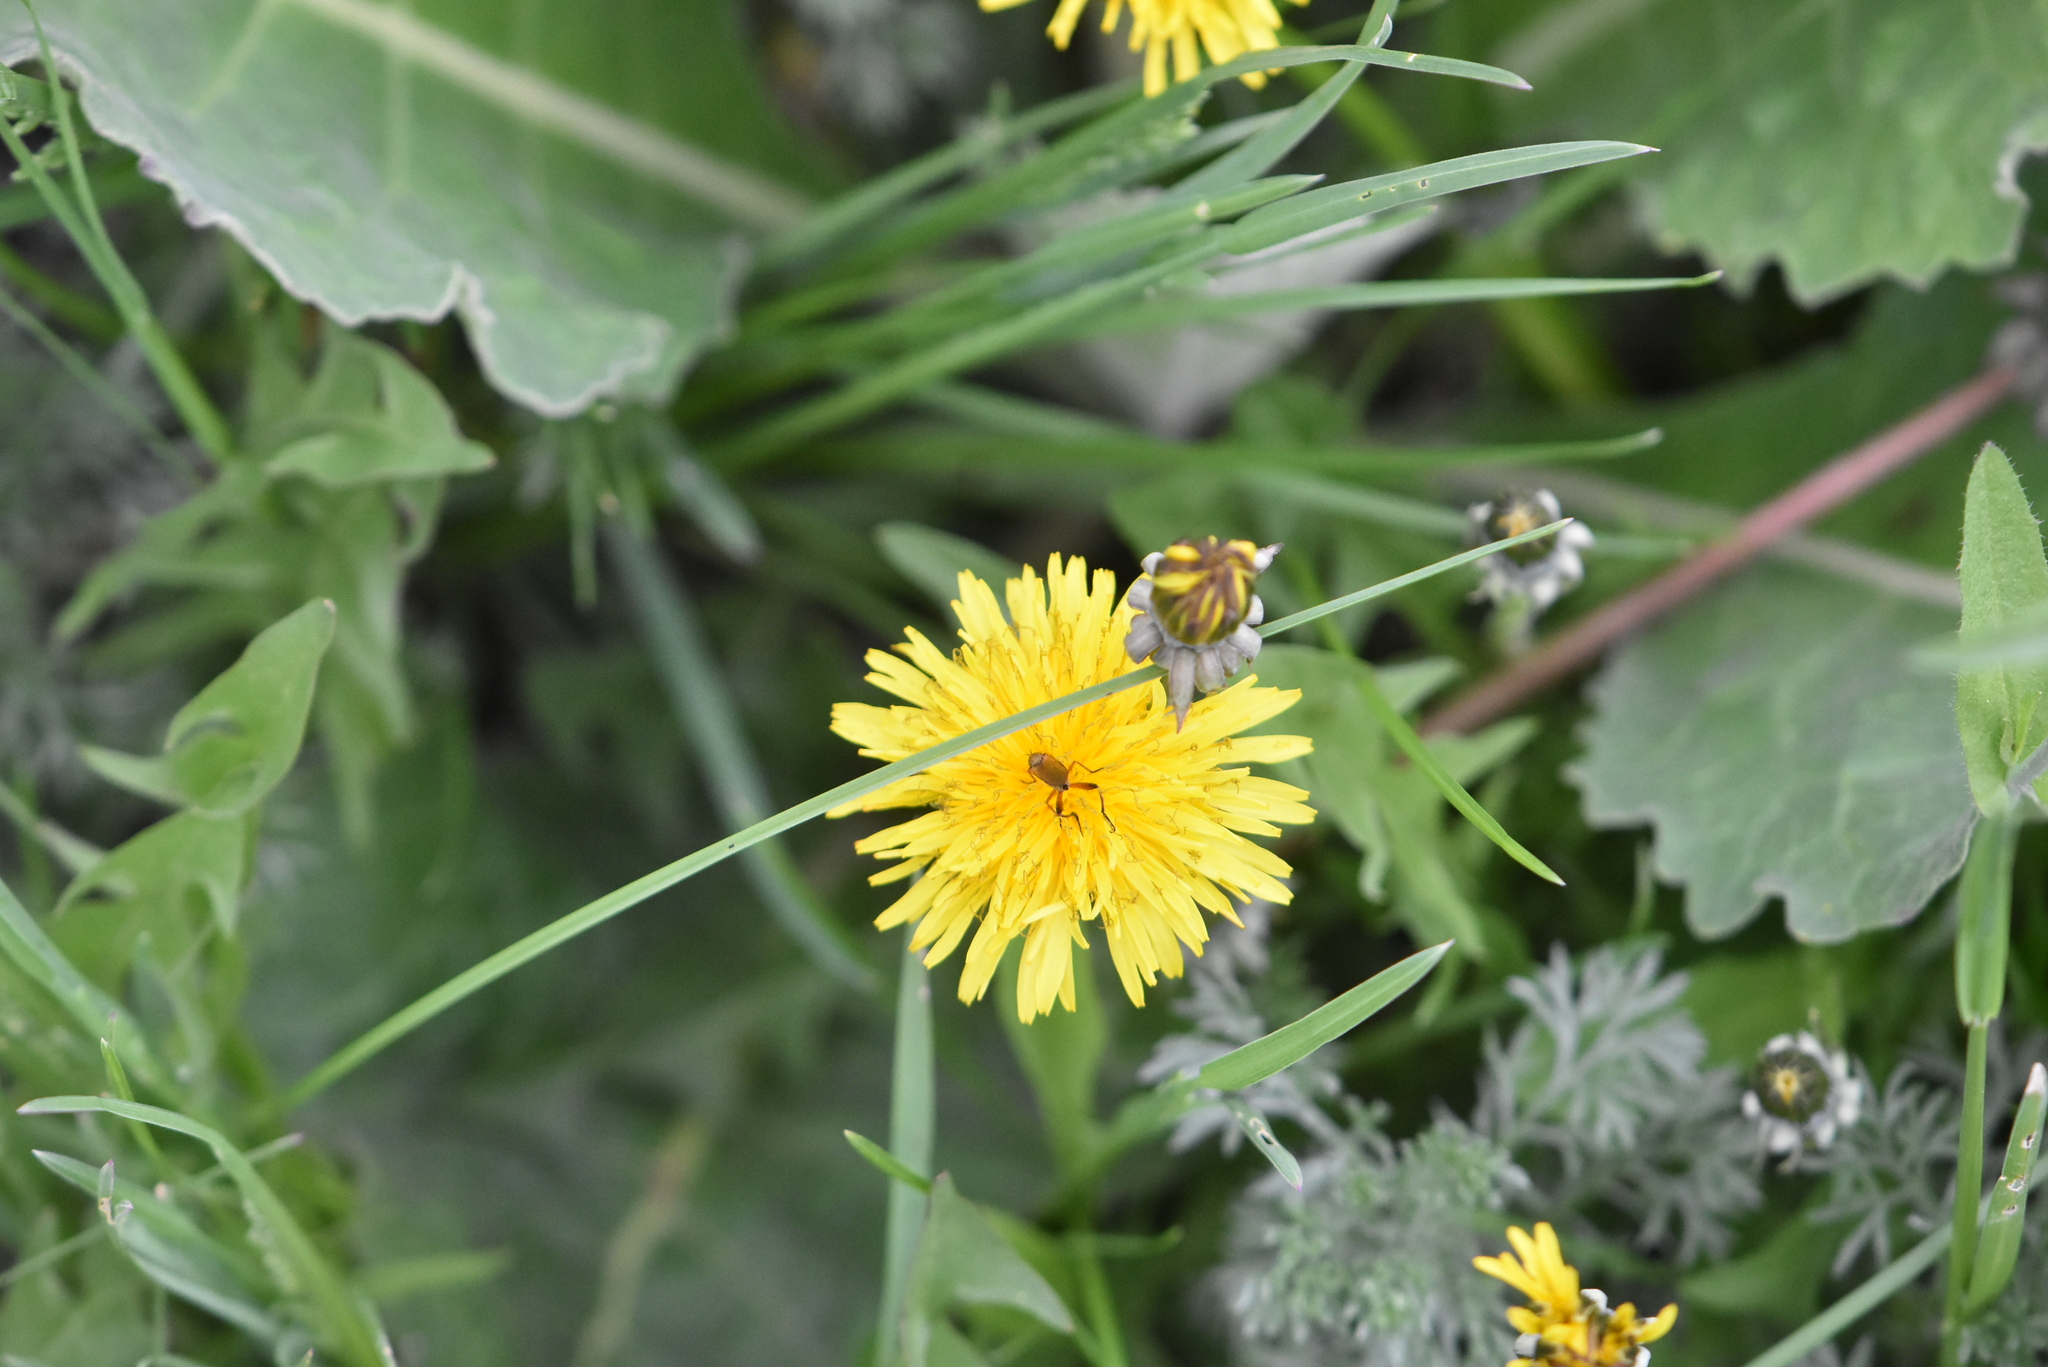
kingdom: Plantae
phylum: Tracheophyta
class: Magnoliopsida
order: Asterales
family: Asteraceae
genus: Taraxacum
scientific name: Taraxacum officinale
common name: Common dandelion
